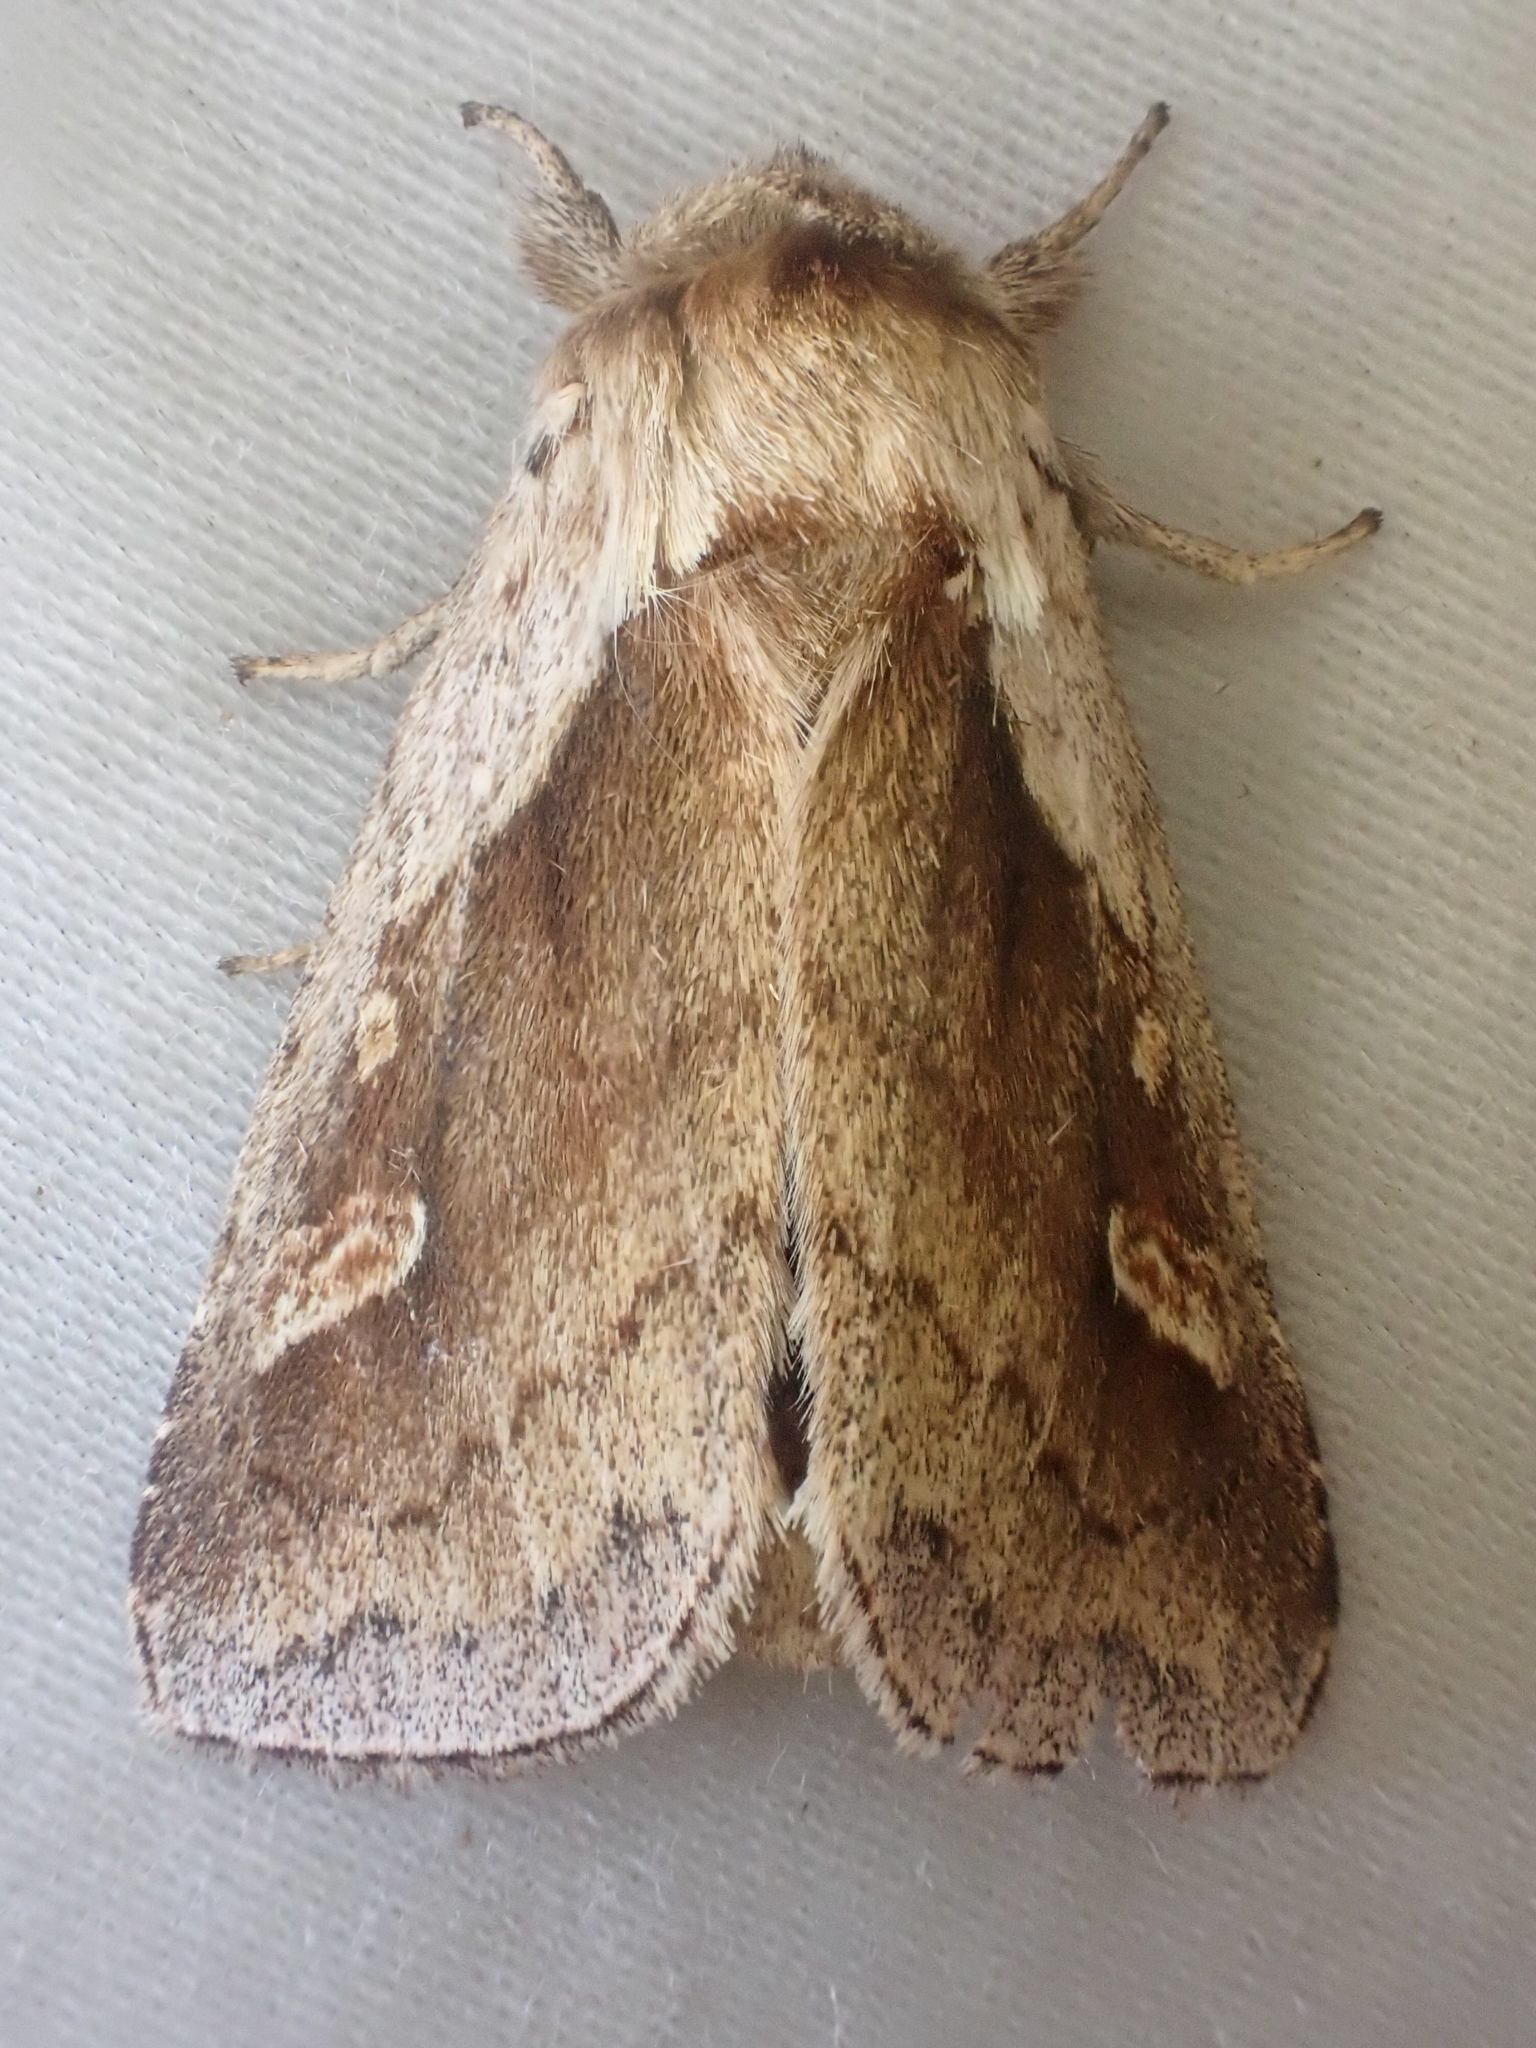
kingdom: Animalia
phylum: Arthropoda
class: Insecta
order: Lepidoptera
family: Noctuidae
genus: Bellura
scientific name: Bellura obliqua
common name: Cattail borer moth
